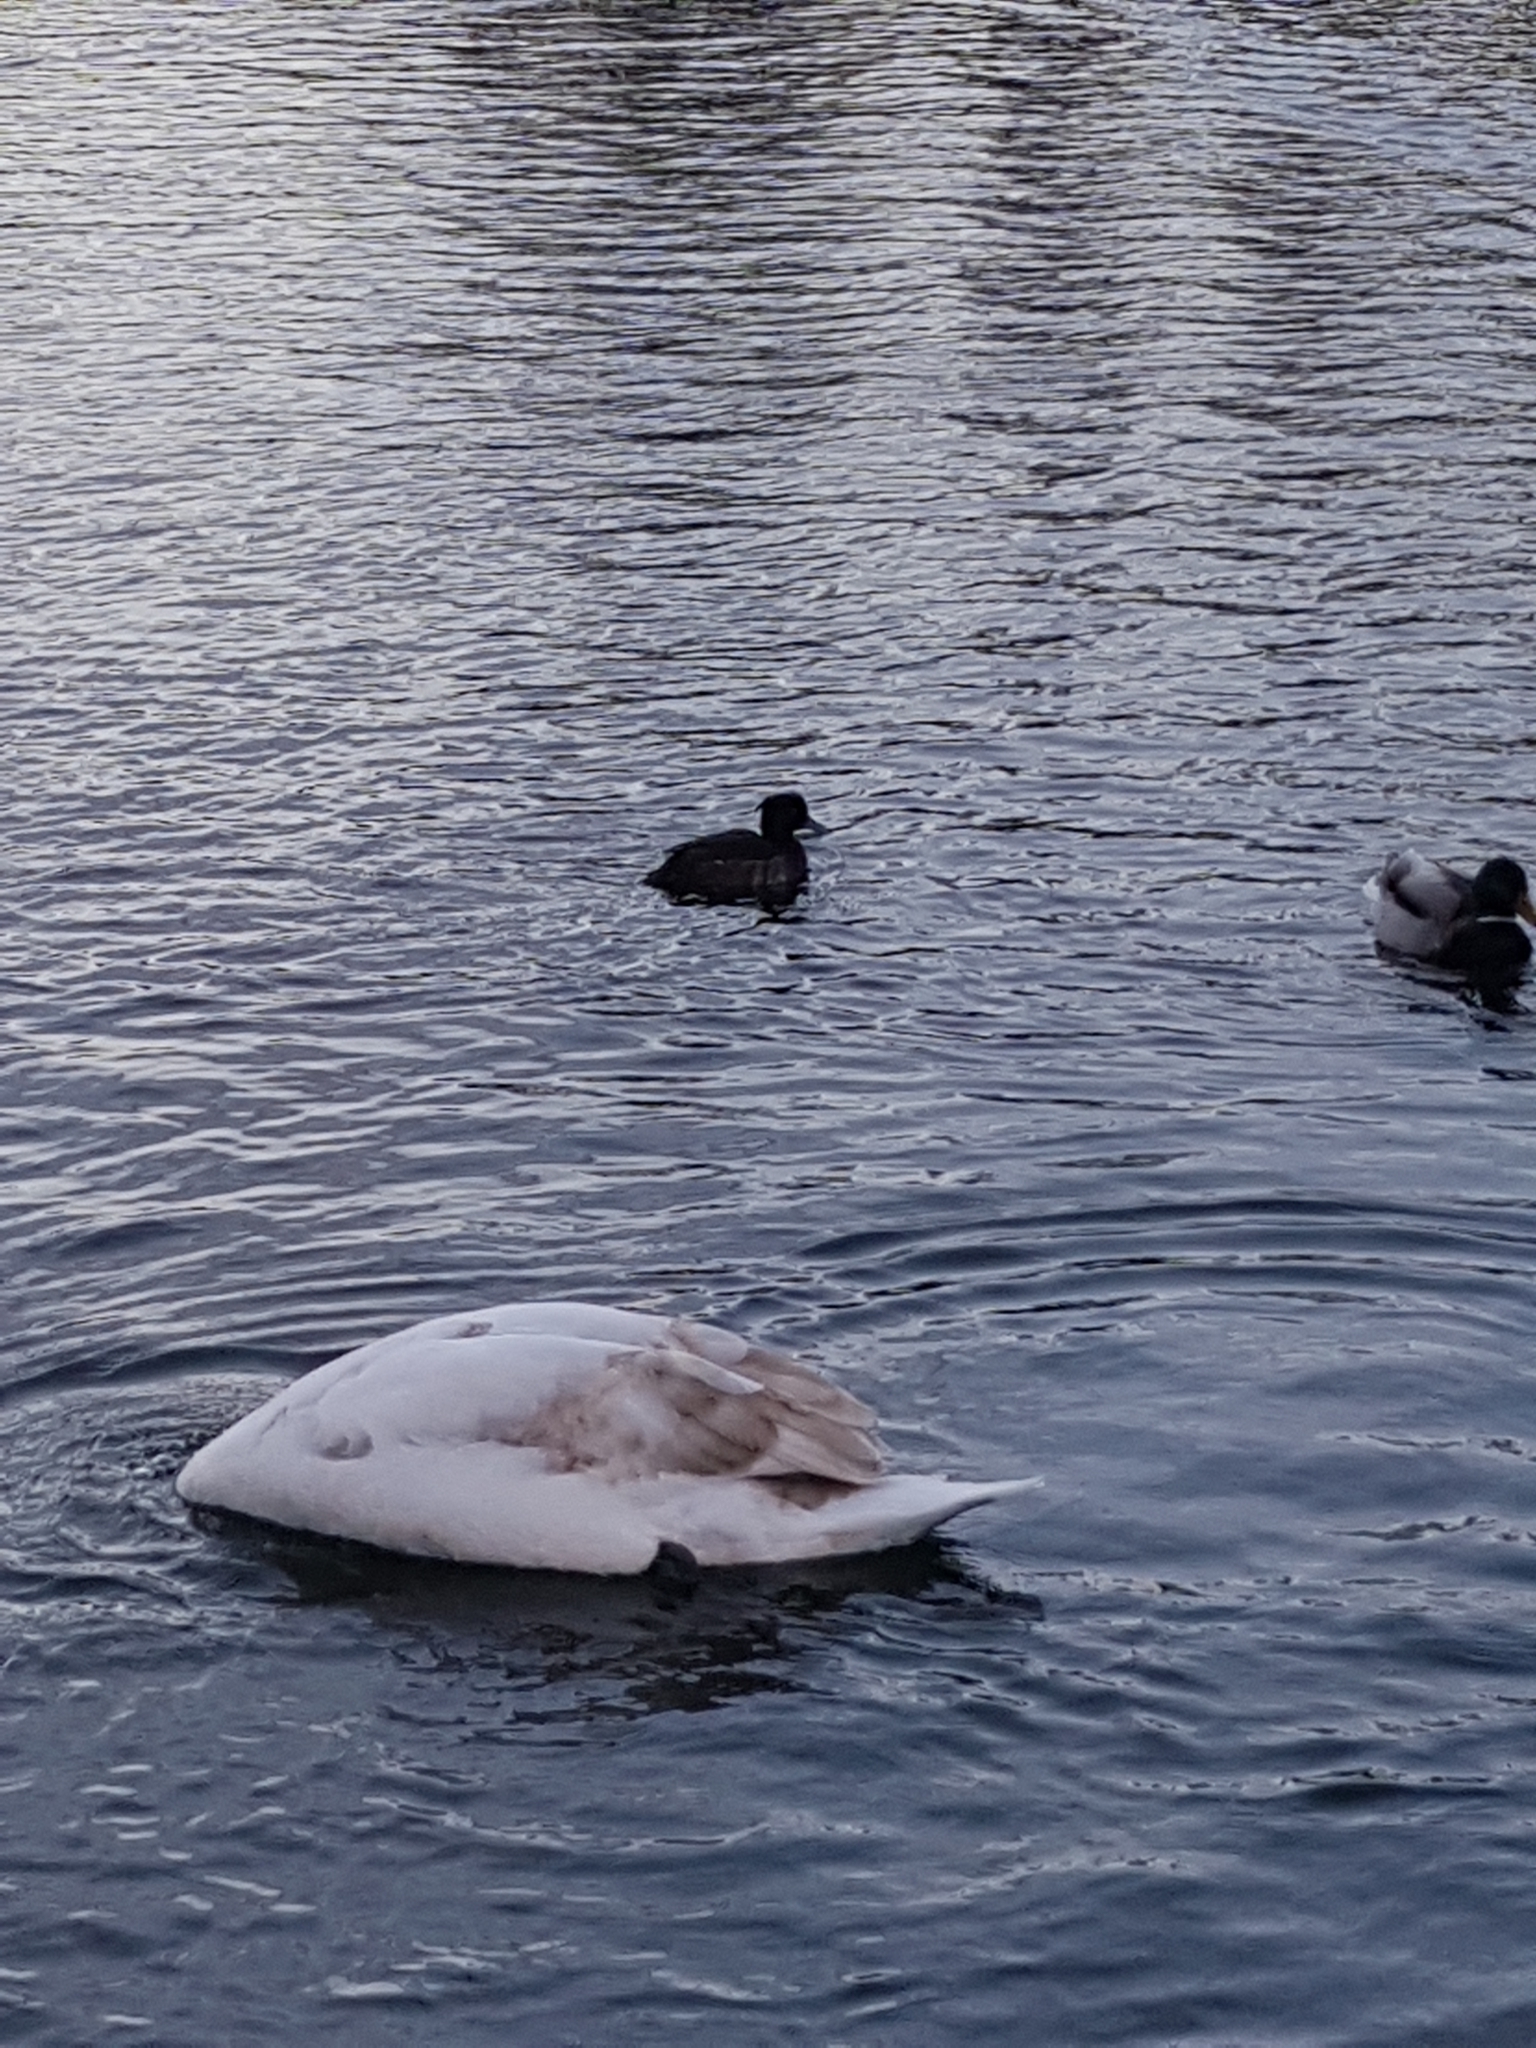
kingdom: Animalia
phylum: Chordata
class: Aves
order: Anseriformes
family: Anatidae
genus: Aythya
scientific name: Aythya fuligula
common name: Tufted duck
